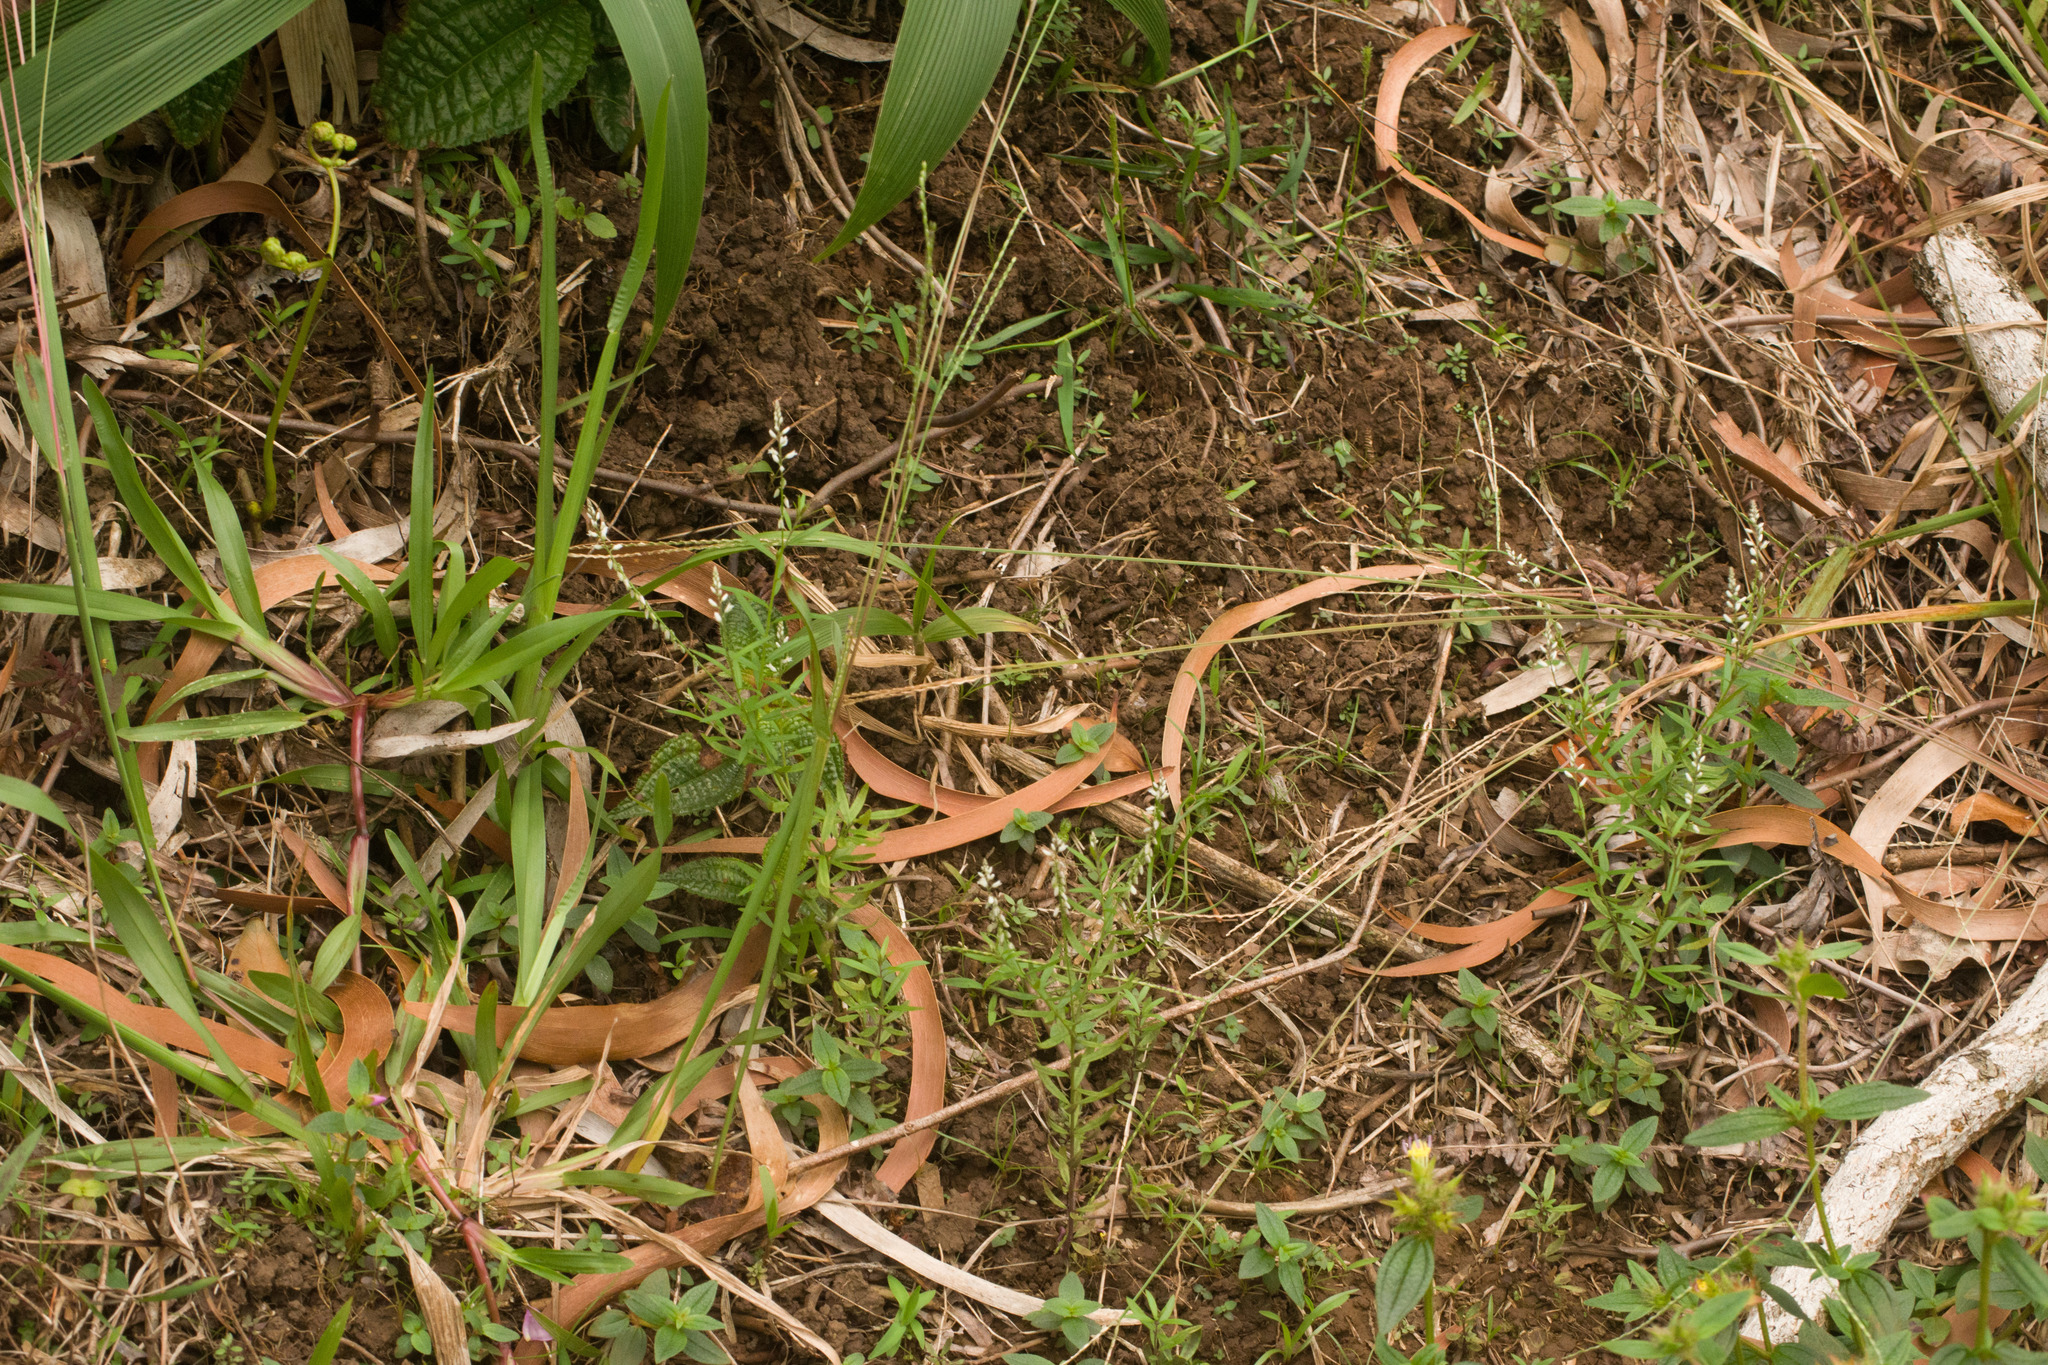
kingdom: Plantae
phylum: Tracheophyta
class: Magnoliopsida
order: Fabales
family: Polygalaceae
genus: Polygala
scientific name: Polygala paniculata
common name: Orosne
